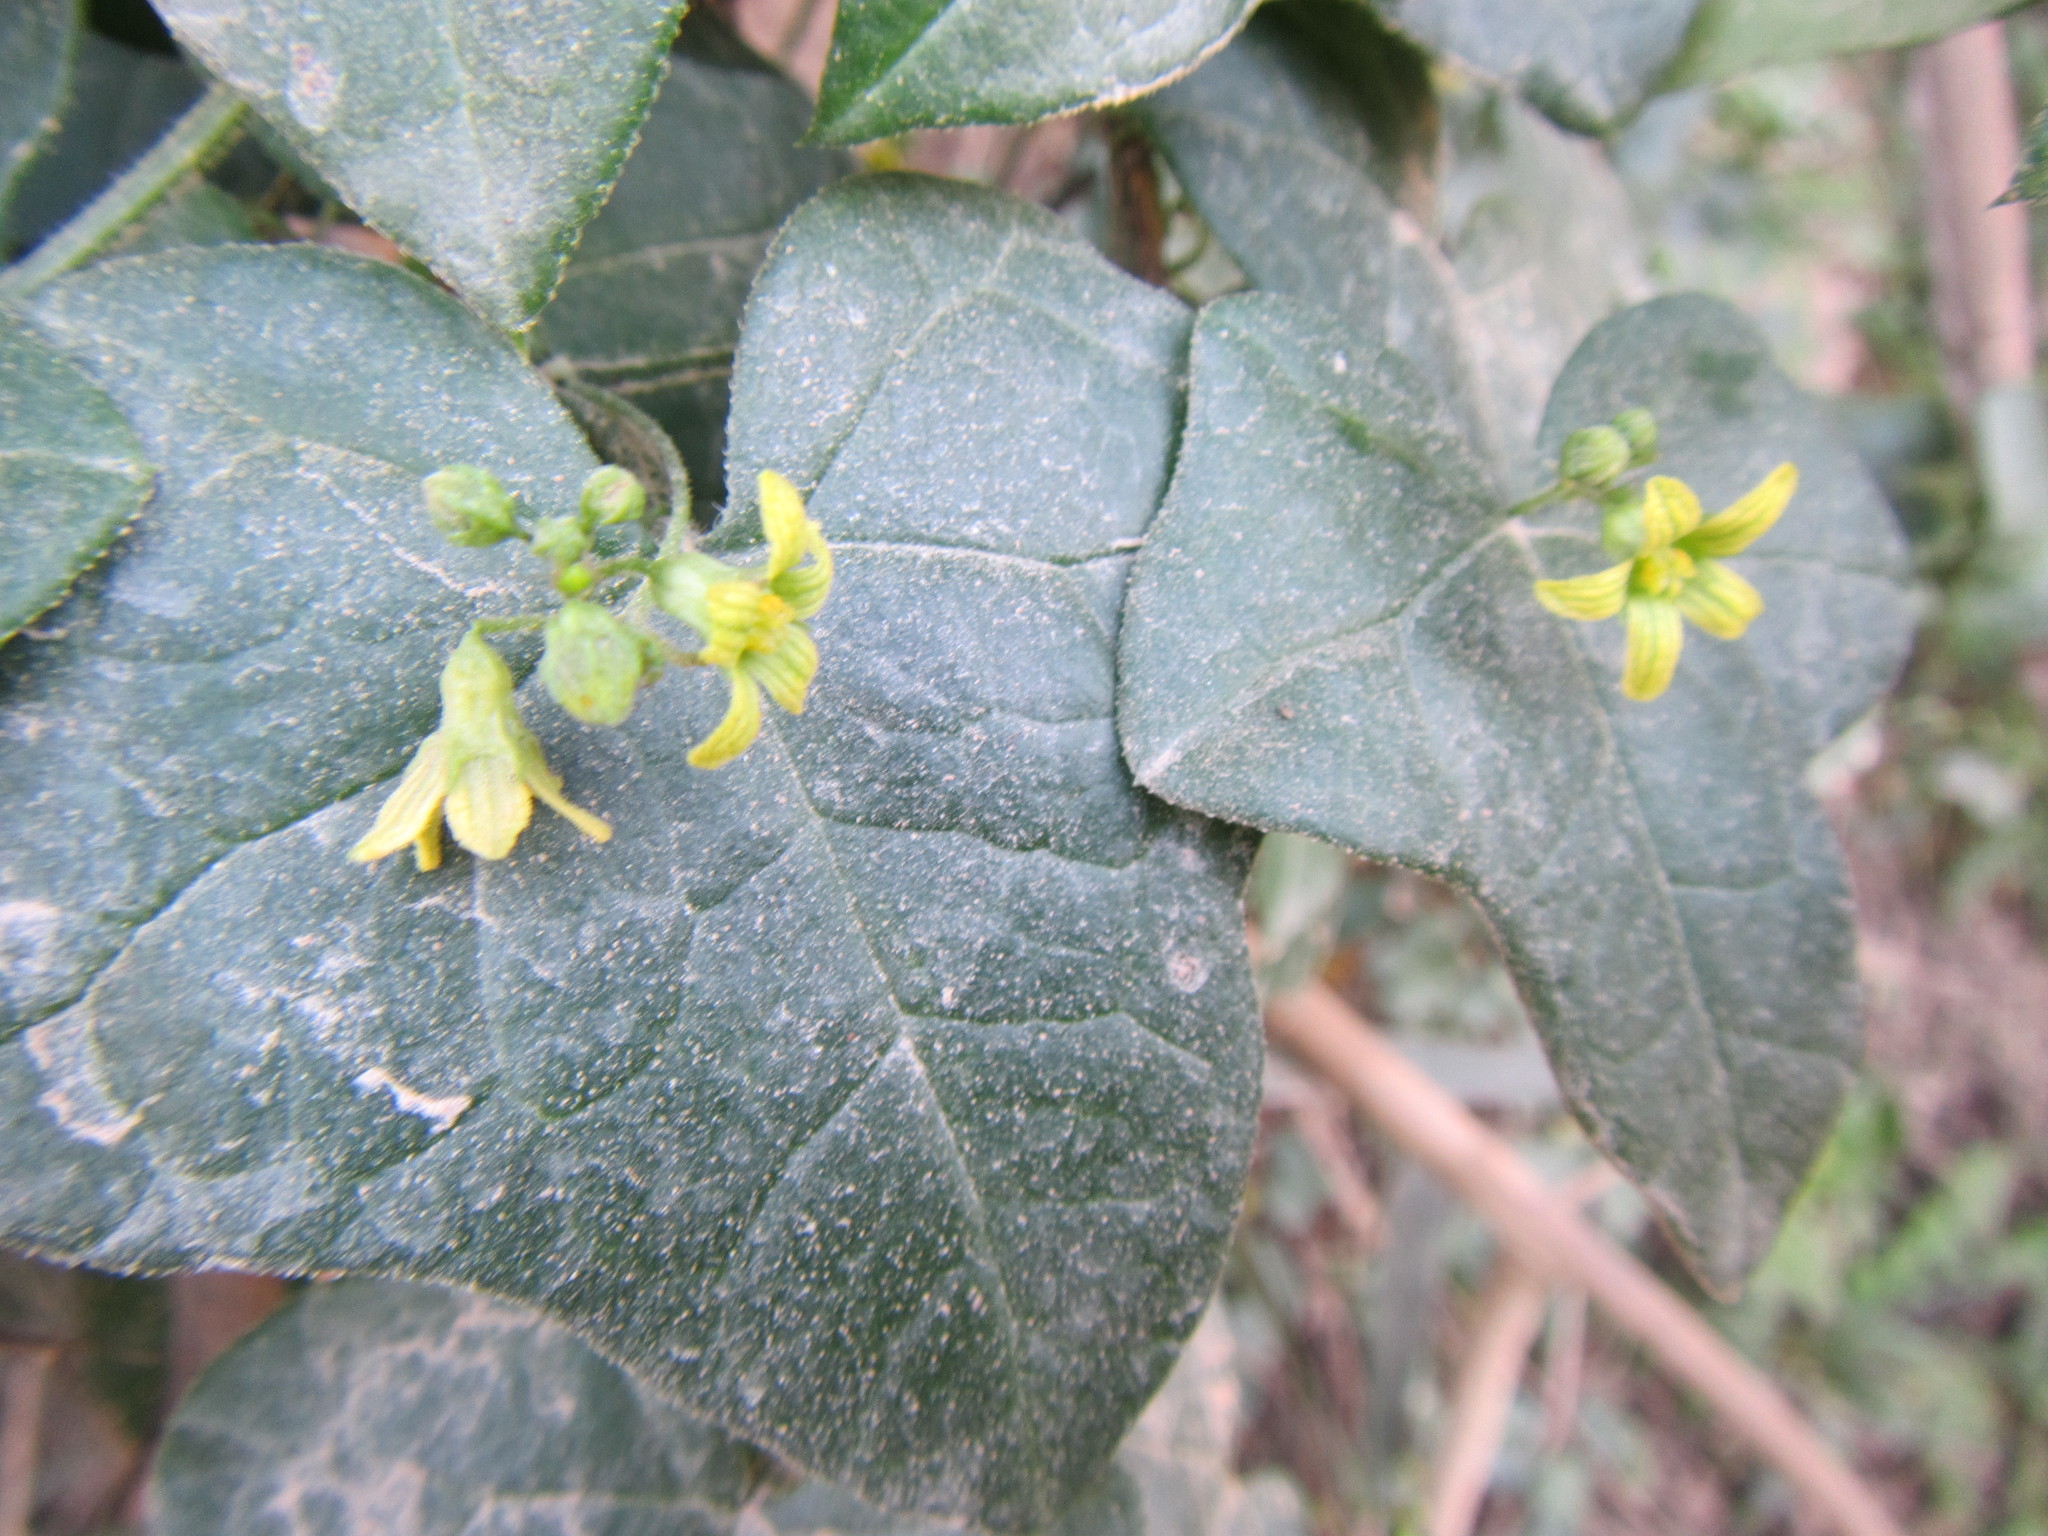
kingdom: Plantae
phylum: Tracheophyta
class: Magnoliopsida
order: Cucurbitales
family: Cucurbitaceae
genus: Kedrostis
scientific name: Kedrostis nana
